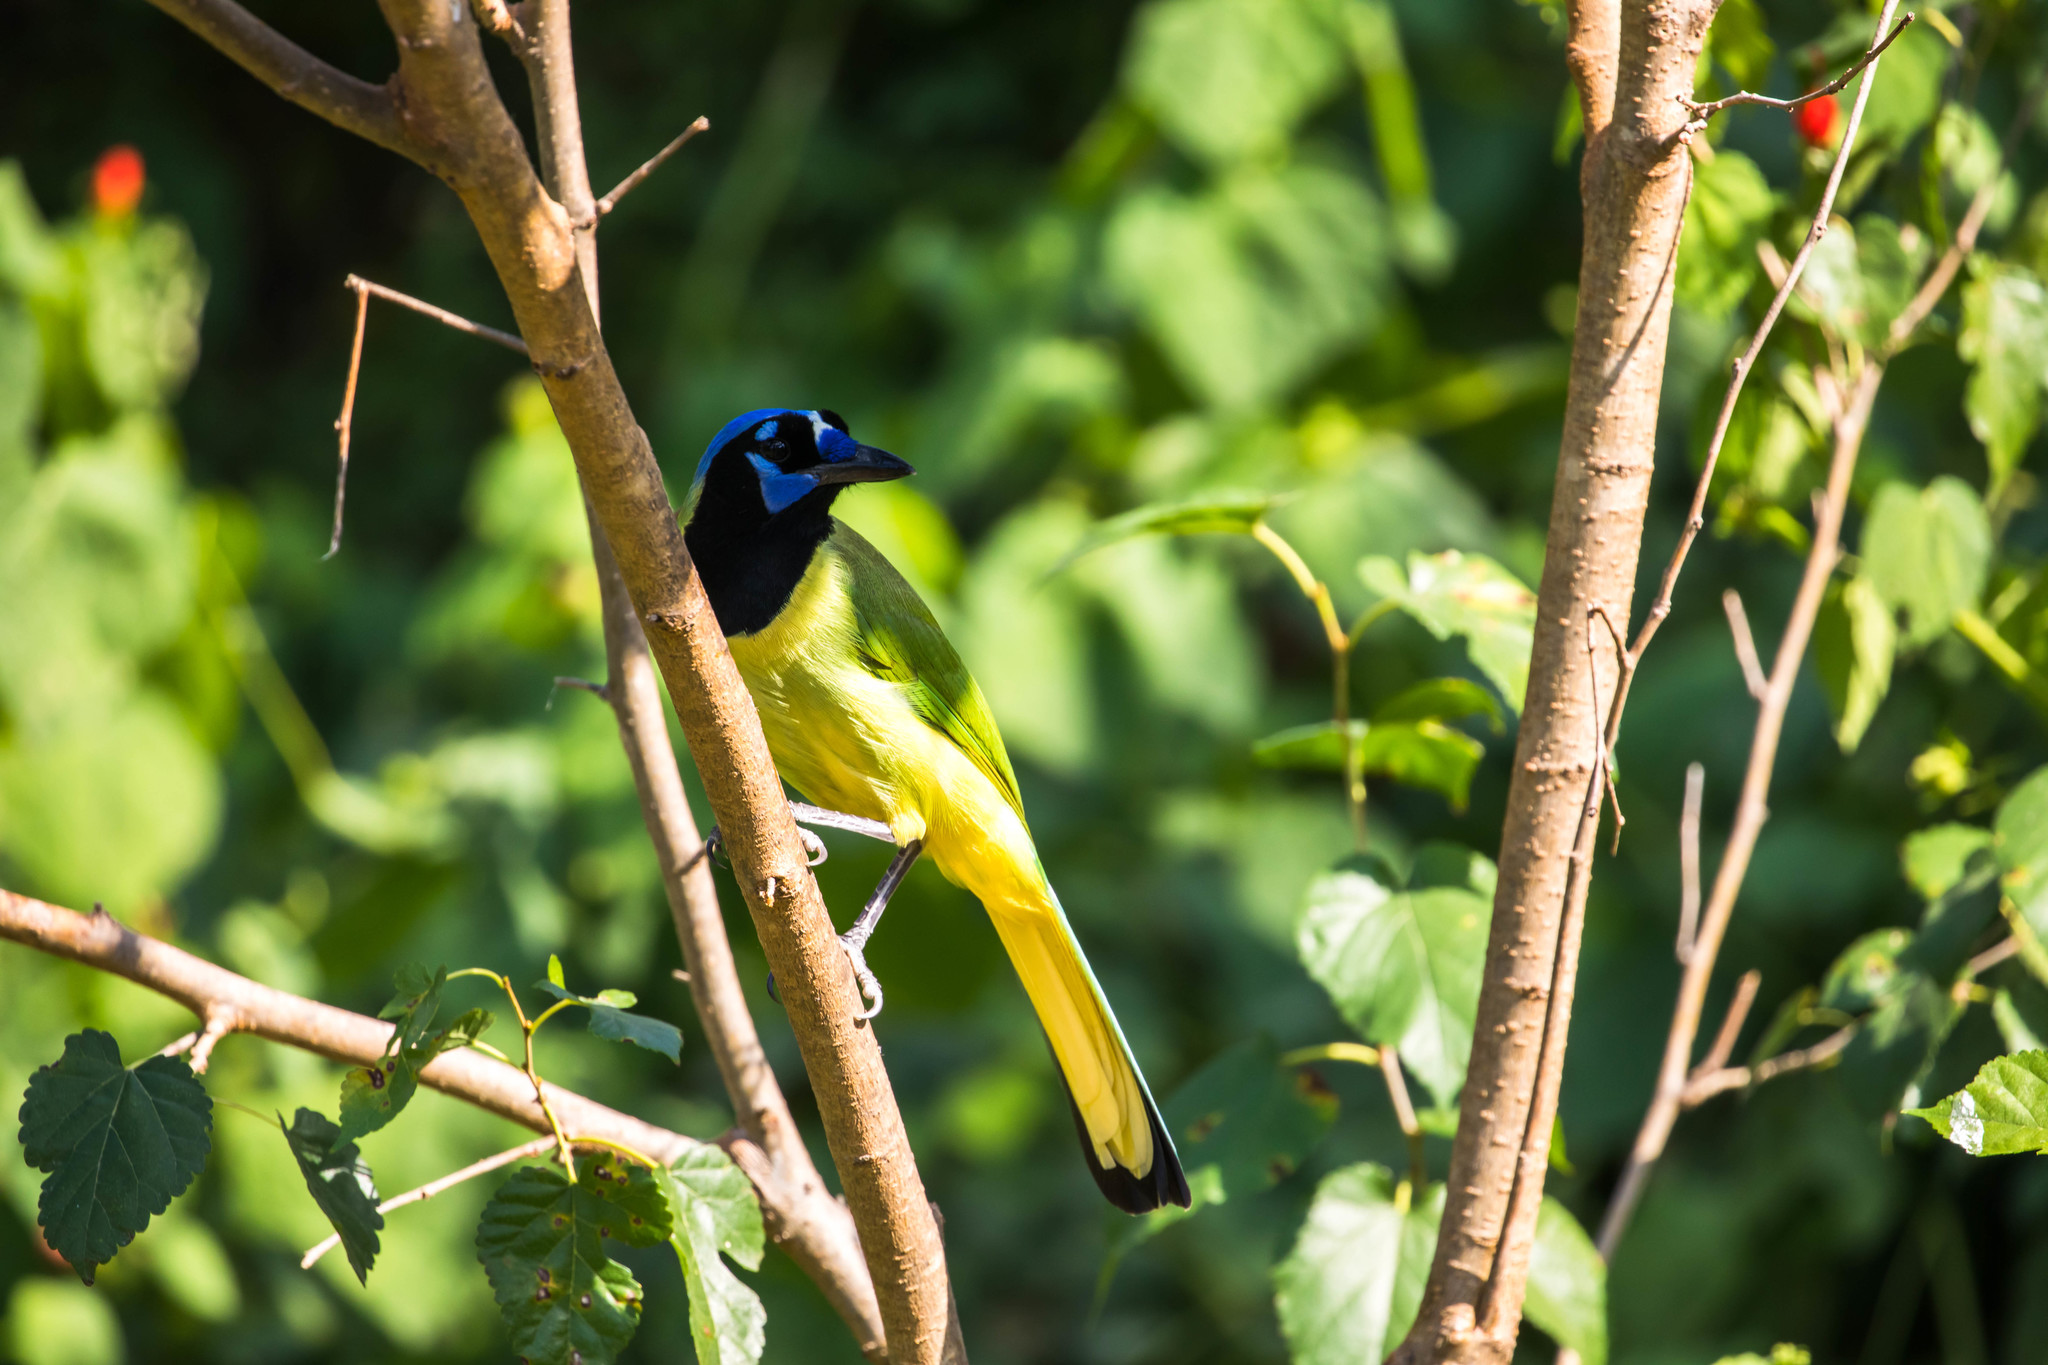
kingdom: Animalia
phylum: Chordata
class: Aves
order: Passeriformes
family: Corvidae
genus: Cyanocorax
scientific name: Cyanocorax yncas
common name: Green jay
